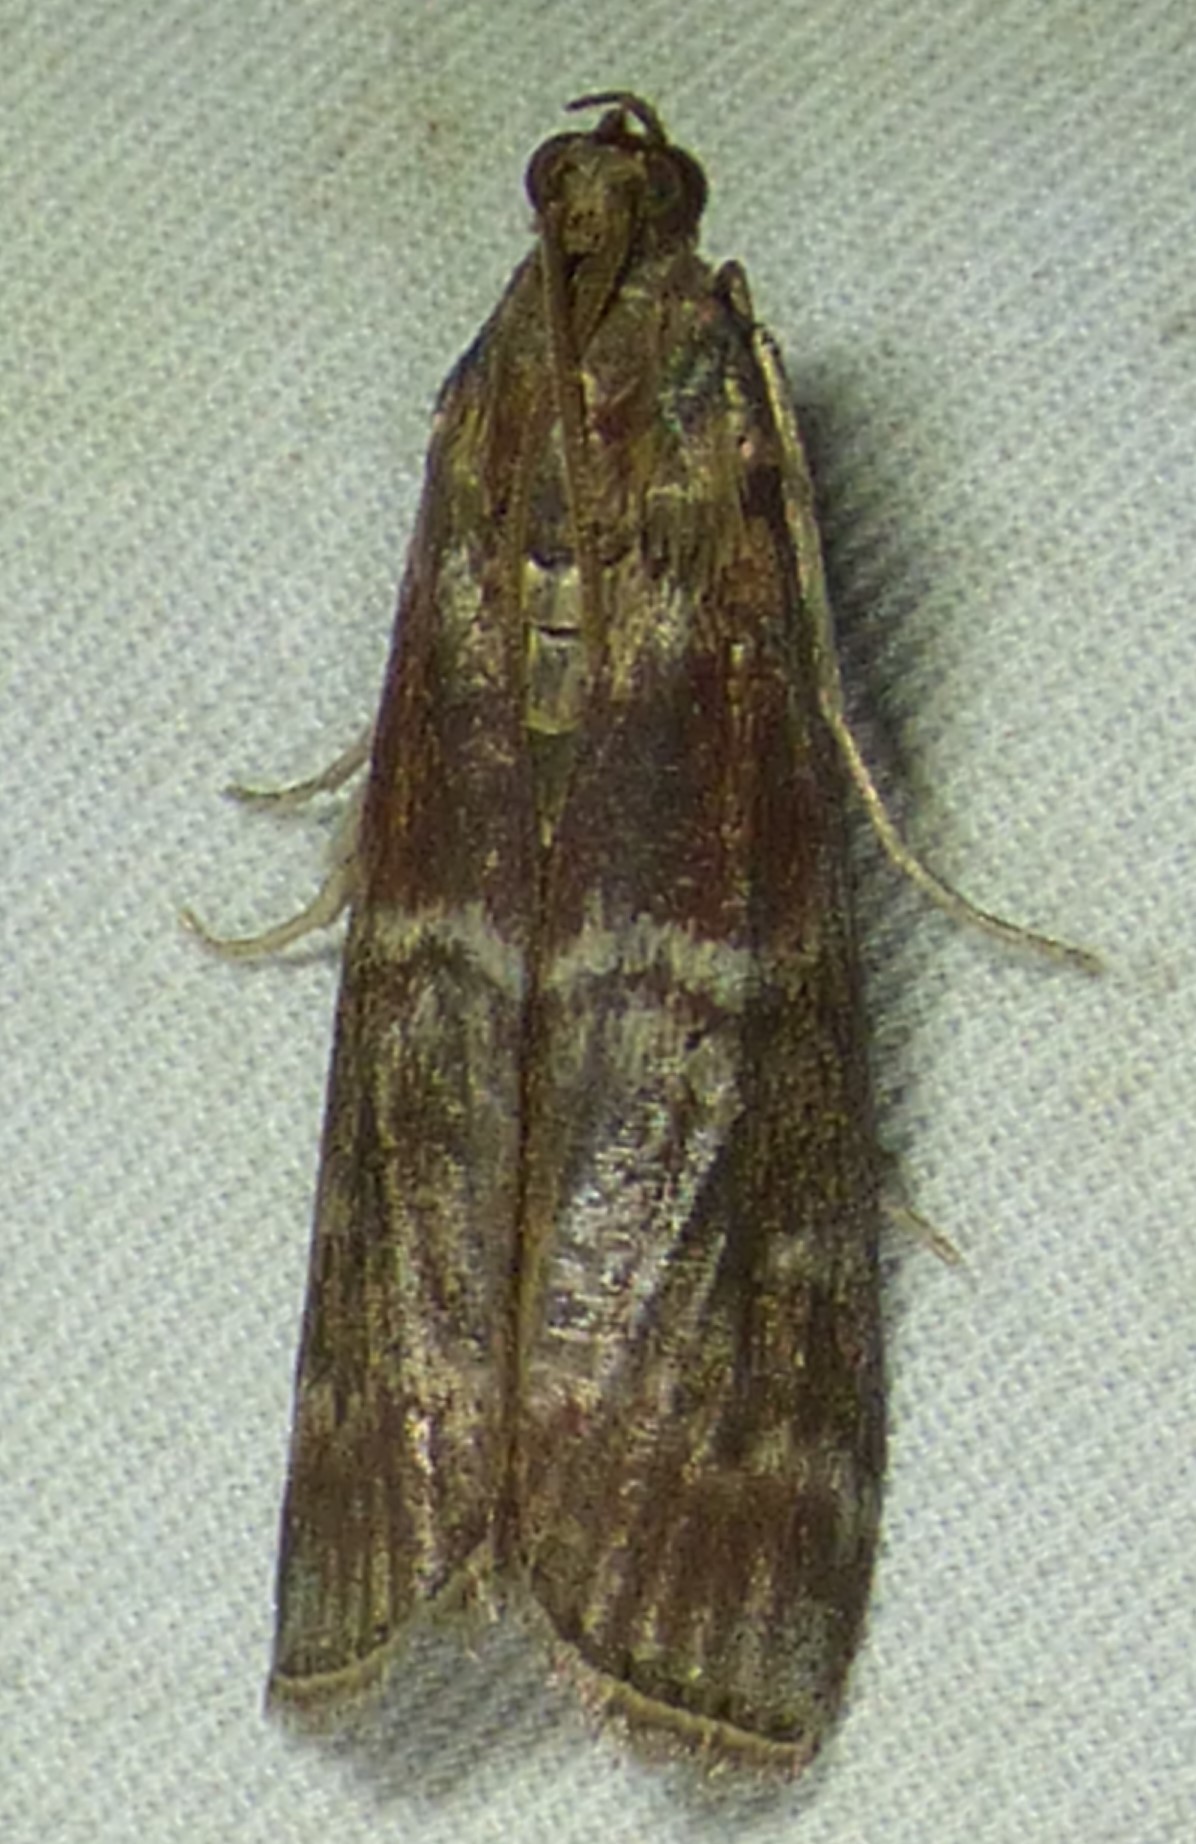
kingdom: Animalia
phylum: Arthropoda
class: Insecta
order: Lepidoptera
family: Pyralidae
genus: Euzophera
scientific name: Euzophera ostricolorella
